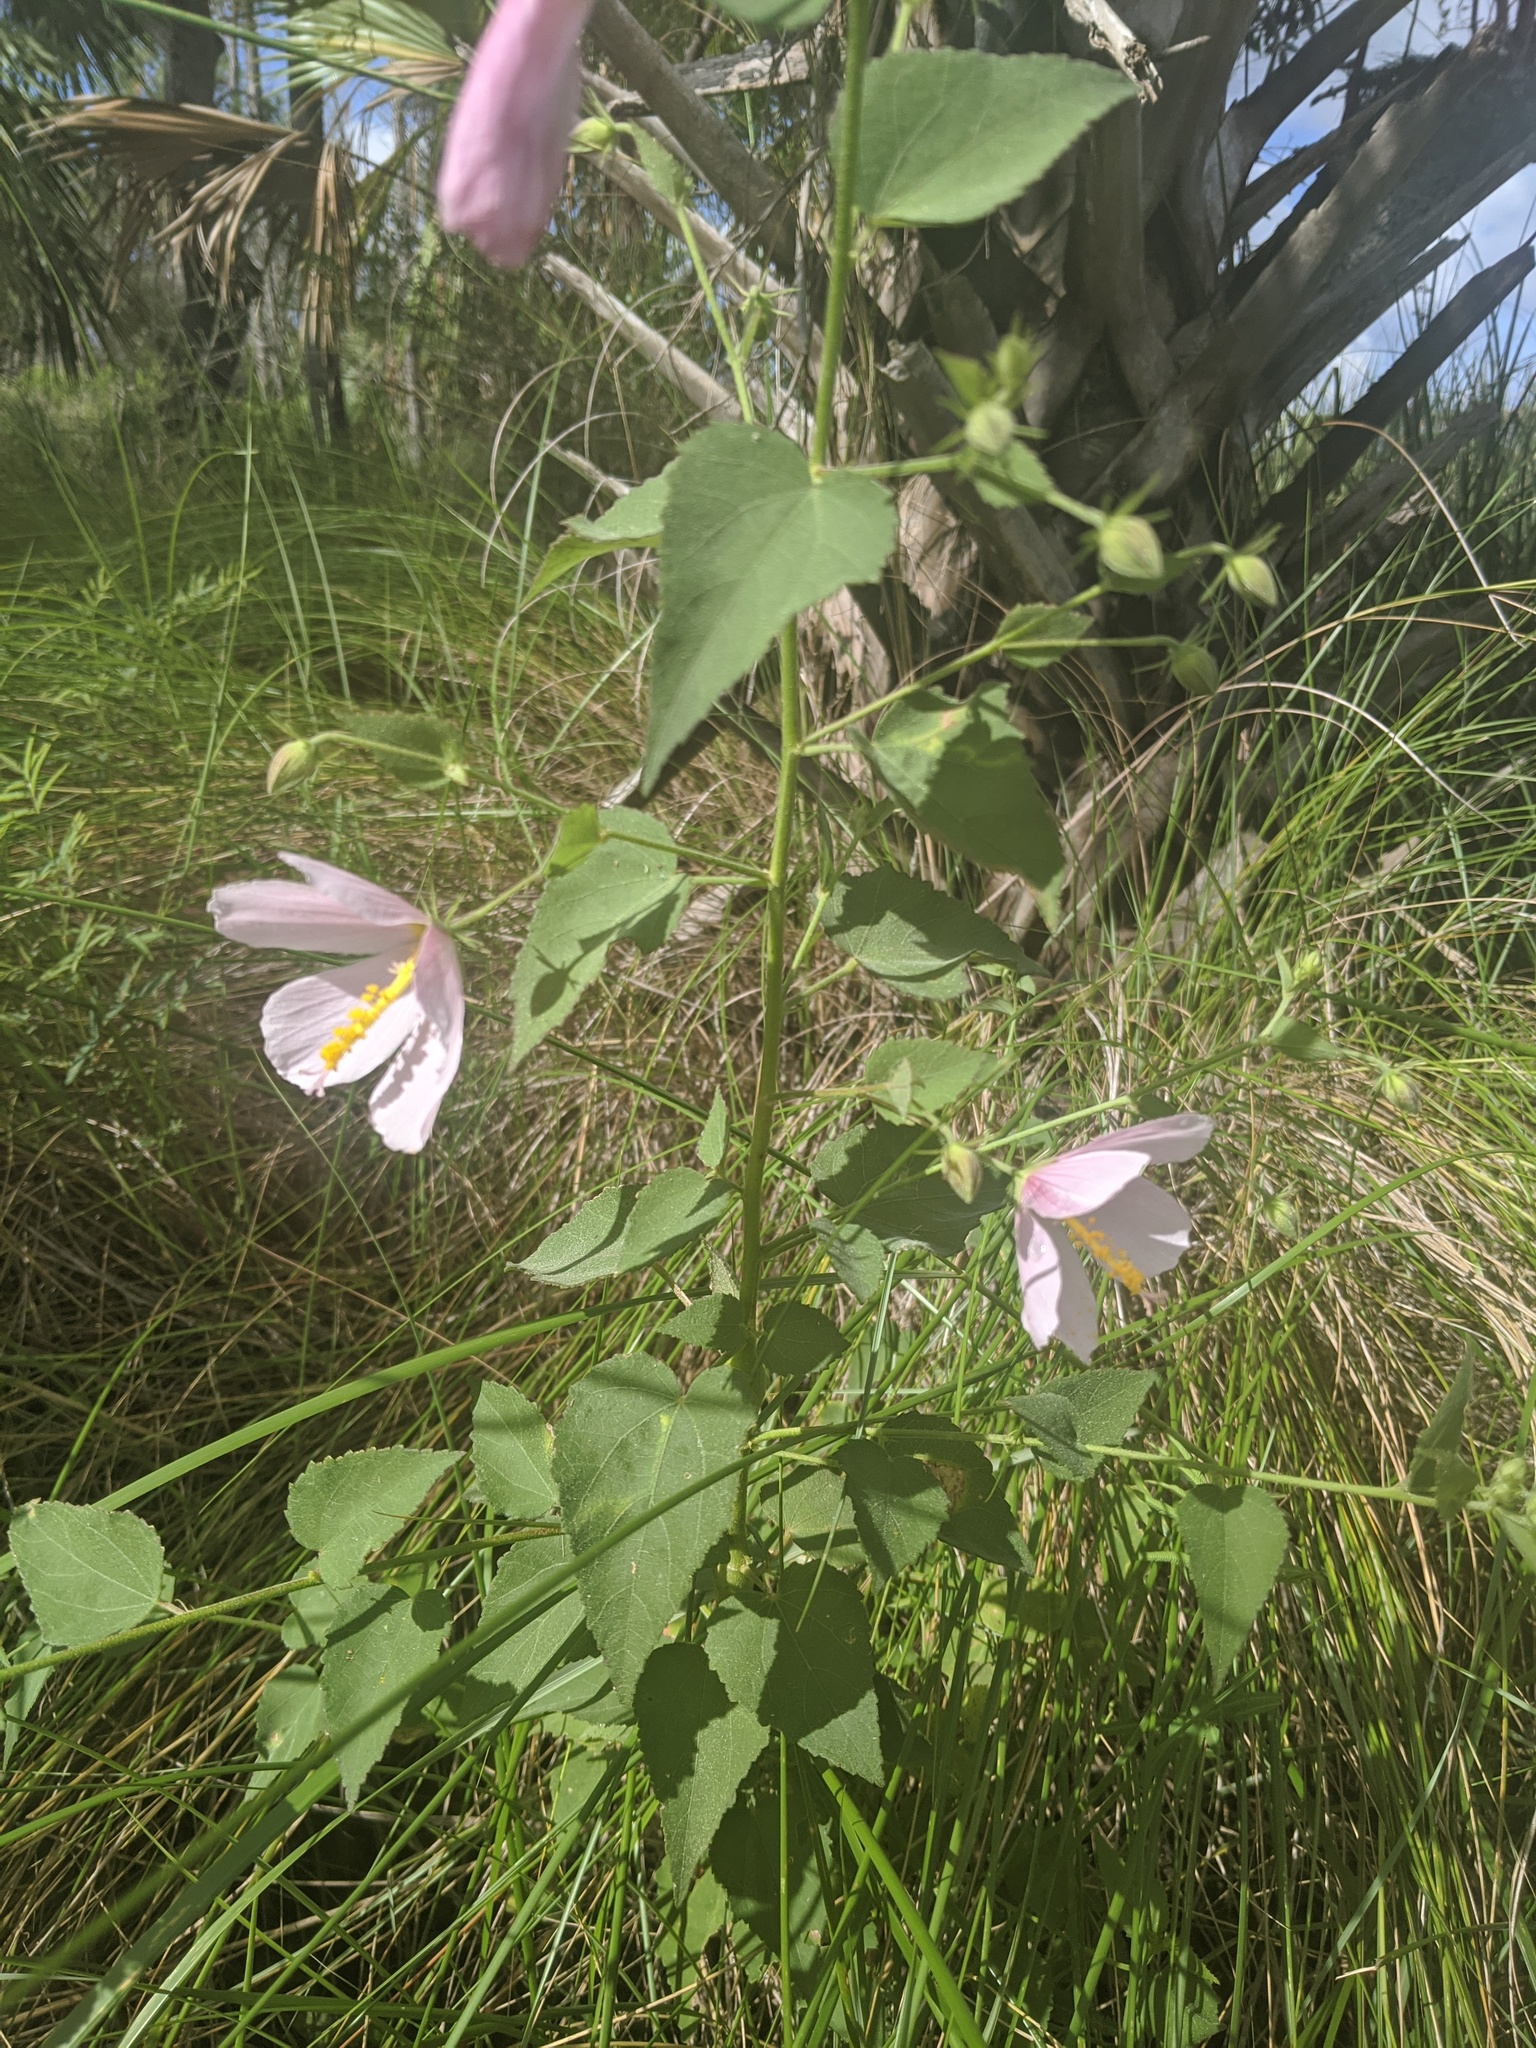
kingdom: Plantae
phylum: Tracheophyta
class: Magnoliopsida
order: Malvales
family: Malvaceae
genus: Kosteletzkya
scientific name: Kosteletzkya pentacarpos
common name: Virginia saltmarsh mallow
